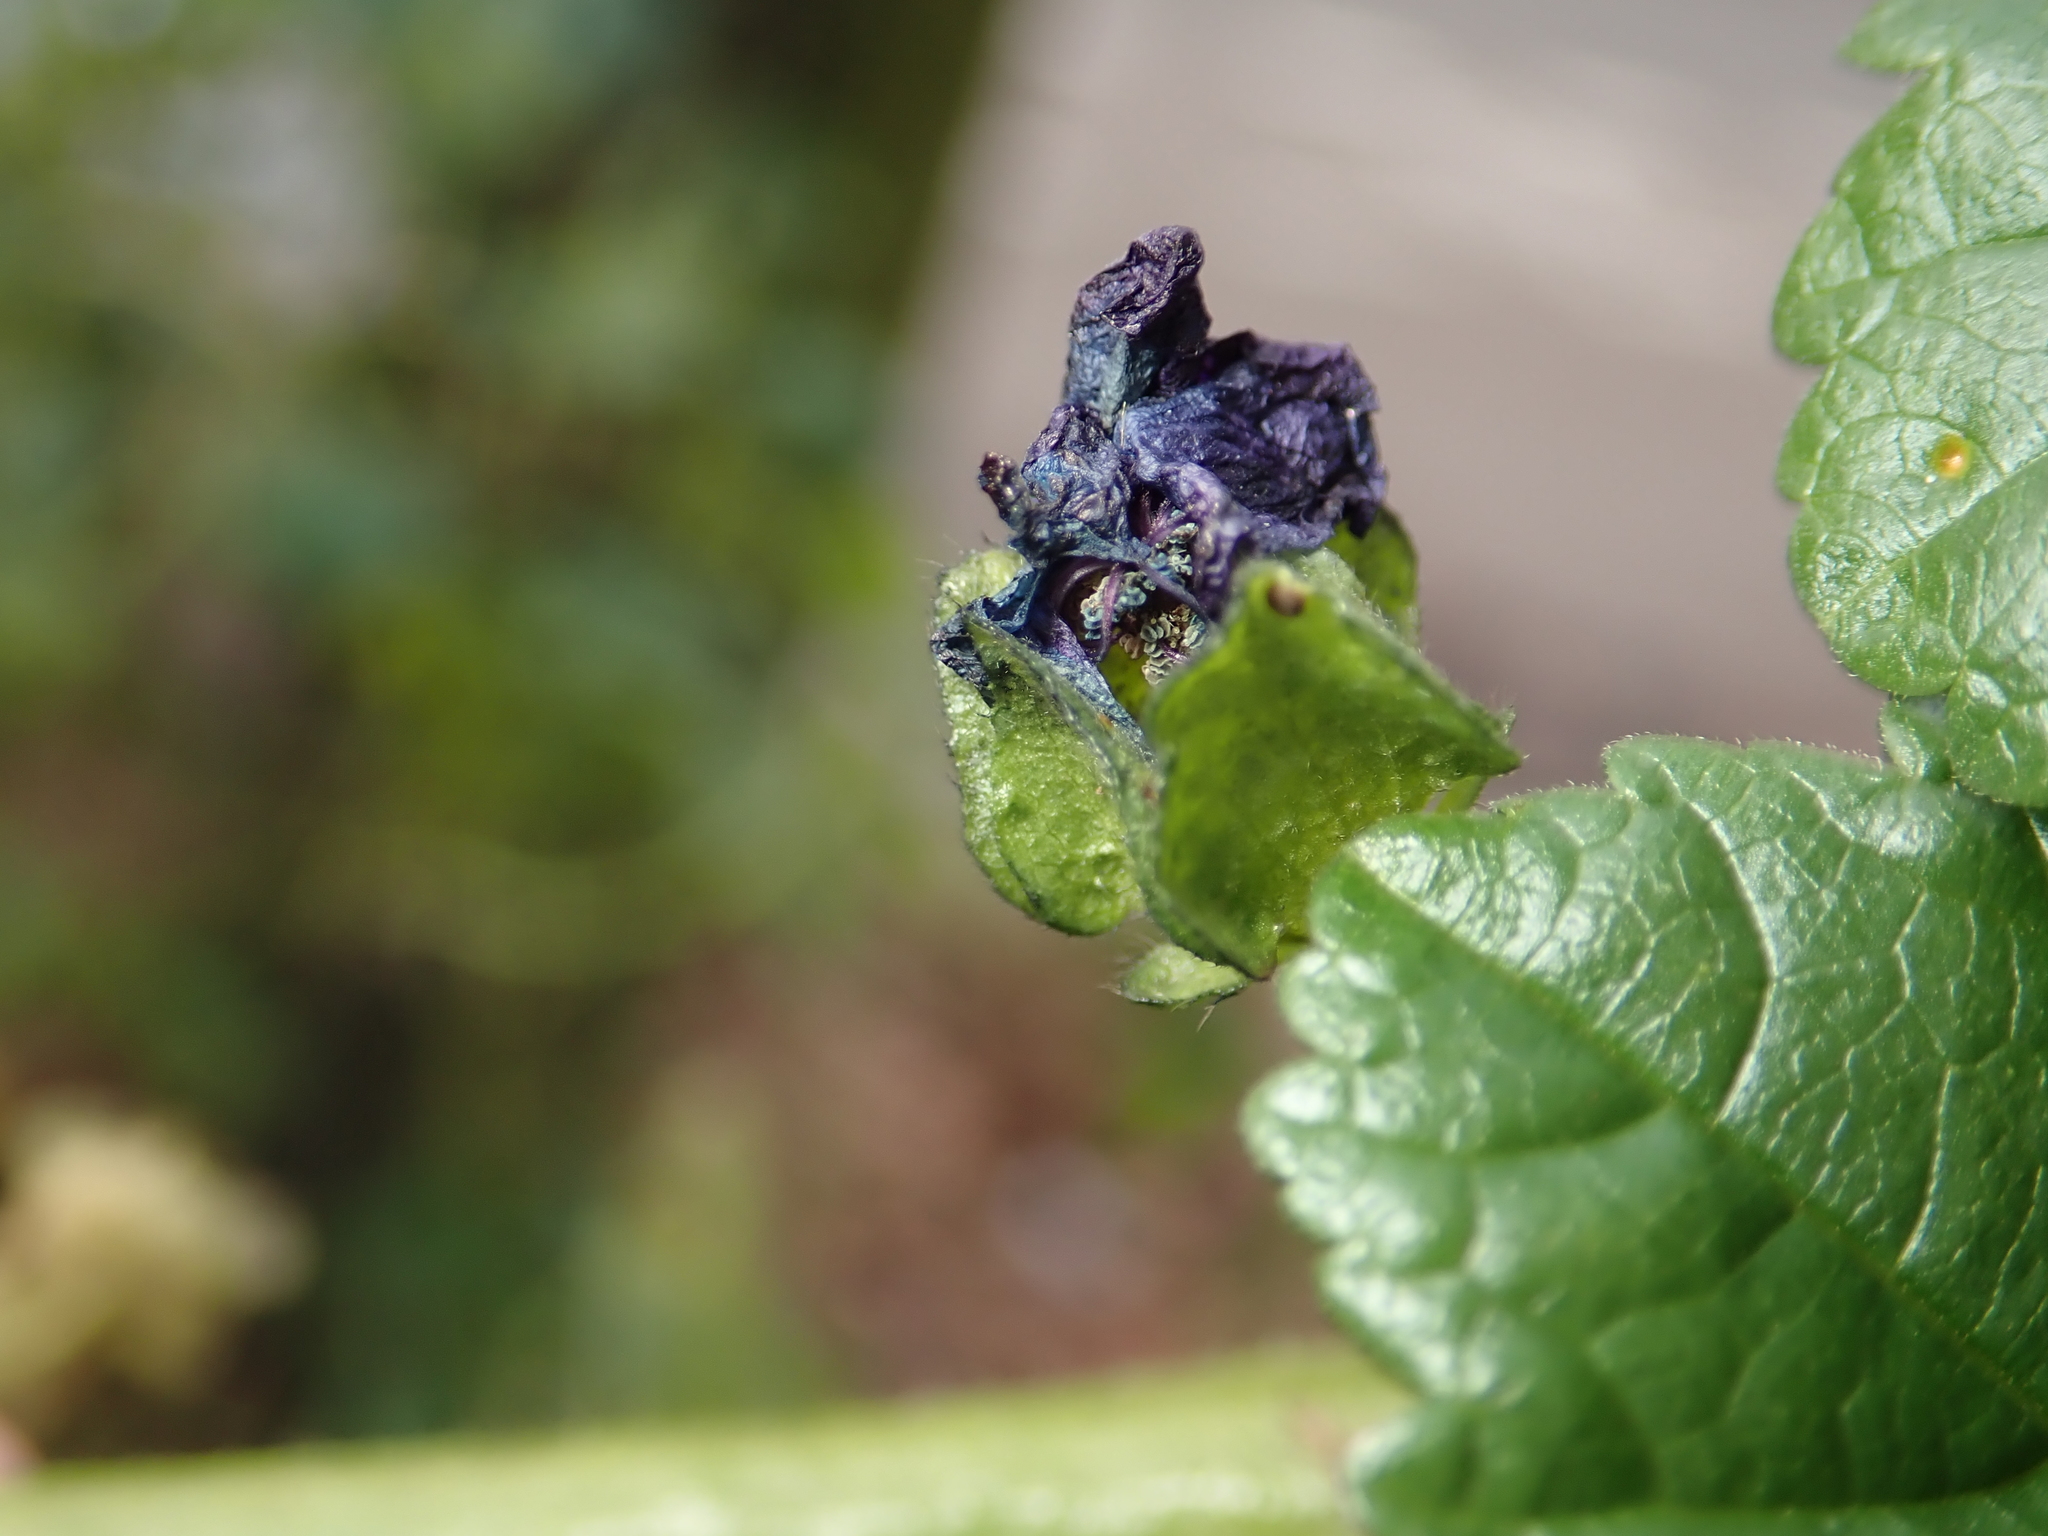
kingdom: Plantae
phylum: Tracheophyta
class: Magnoliopsida
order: Malvales
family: Malvaceae
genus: Malva
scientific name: Malva sylvestris
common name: Common mallow
